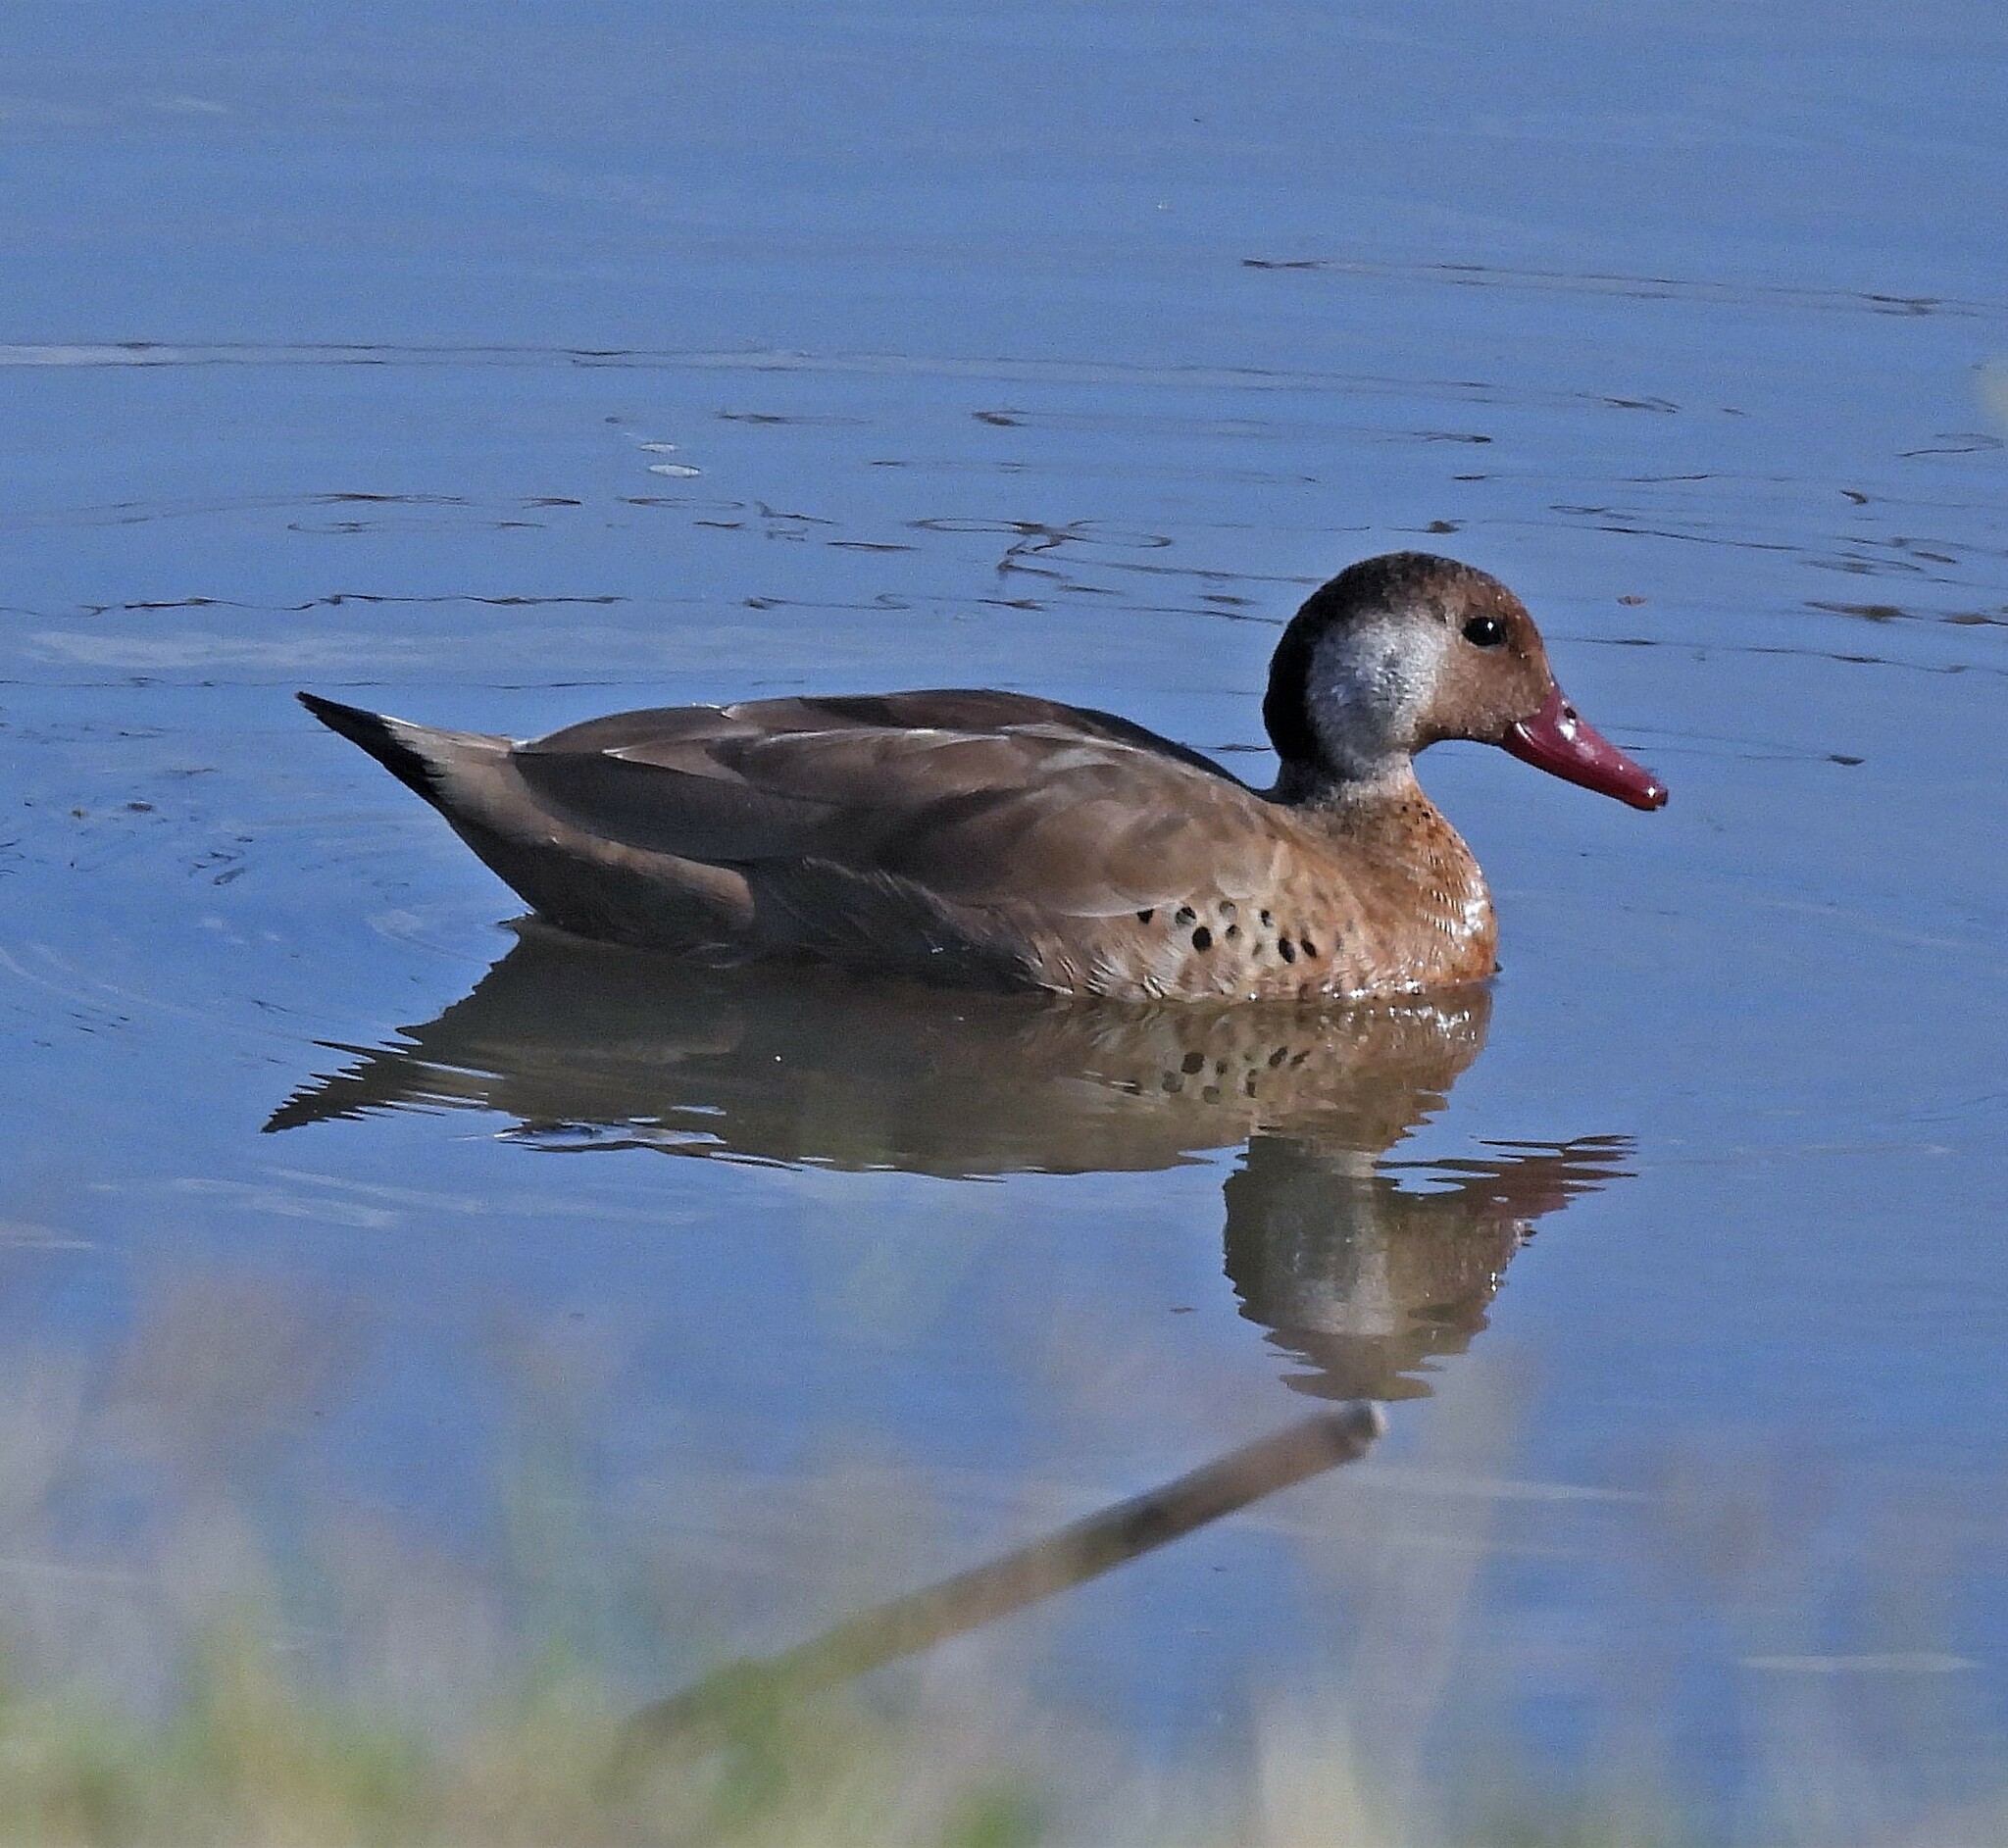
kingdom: Animalia
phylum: Chordata
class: Aves
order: Anseriformes
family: Anatidae
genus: Amazonetta
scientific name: Amazonetta brasiliensis
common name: Brazilian teal
